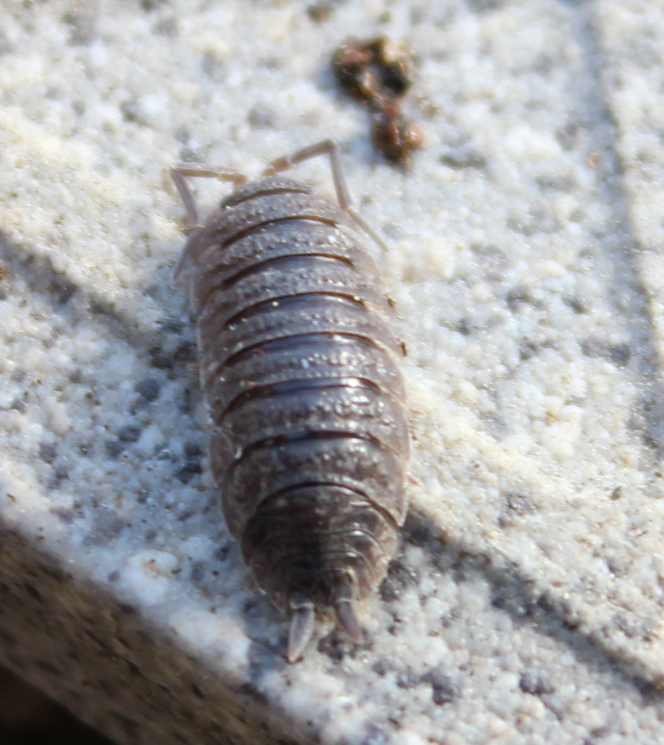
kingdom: Animalia
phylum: Arthropoda
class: Malacostraca
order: Isopoda
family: Porcellionidae
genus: Porcellio
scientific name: Porcellio scaber
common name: Common rough woodlouse
